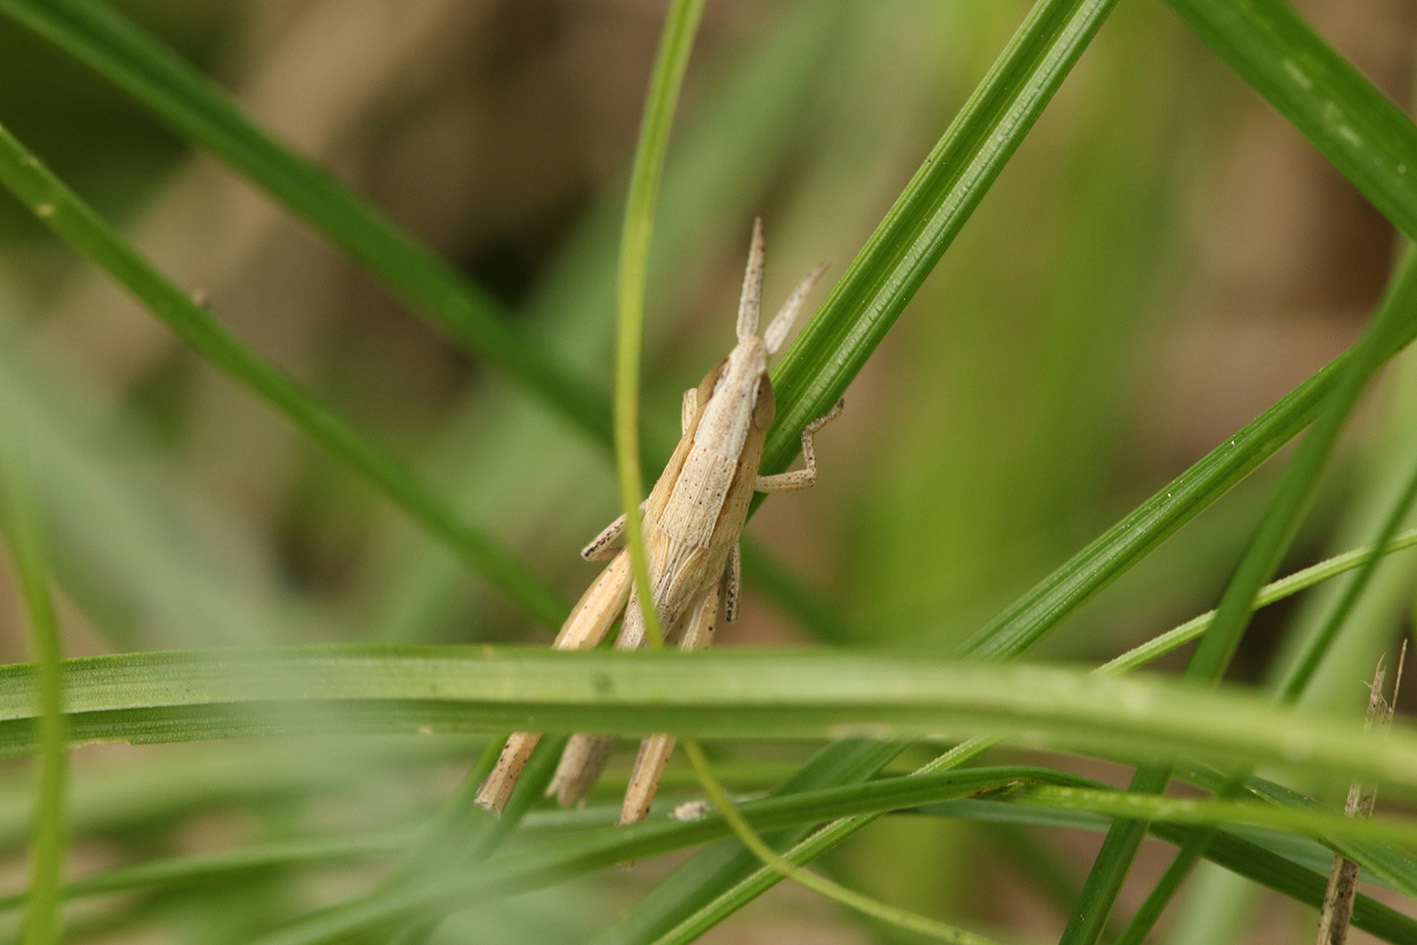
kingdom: Animalia
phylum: Arthropoda
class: Insecta
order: Orthoptera
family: Acrididae
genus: Laplatacris
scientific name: Laplatacris dispar
